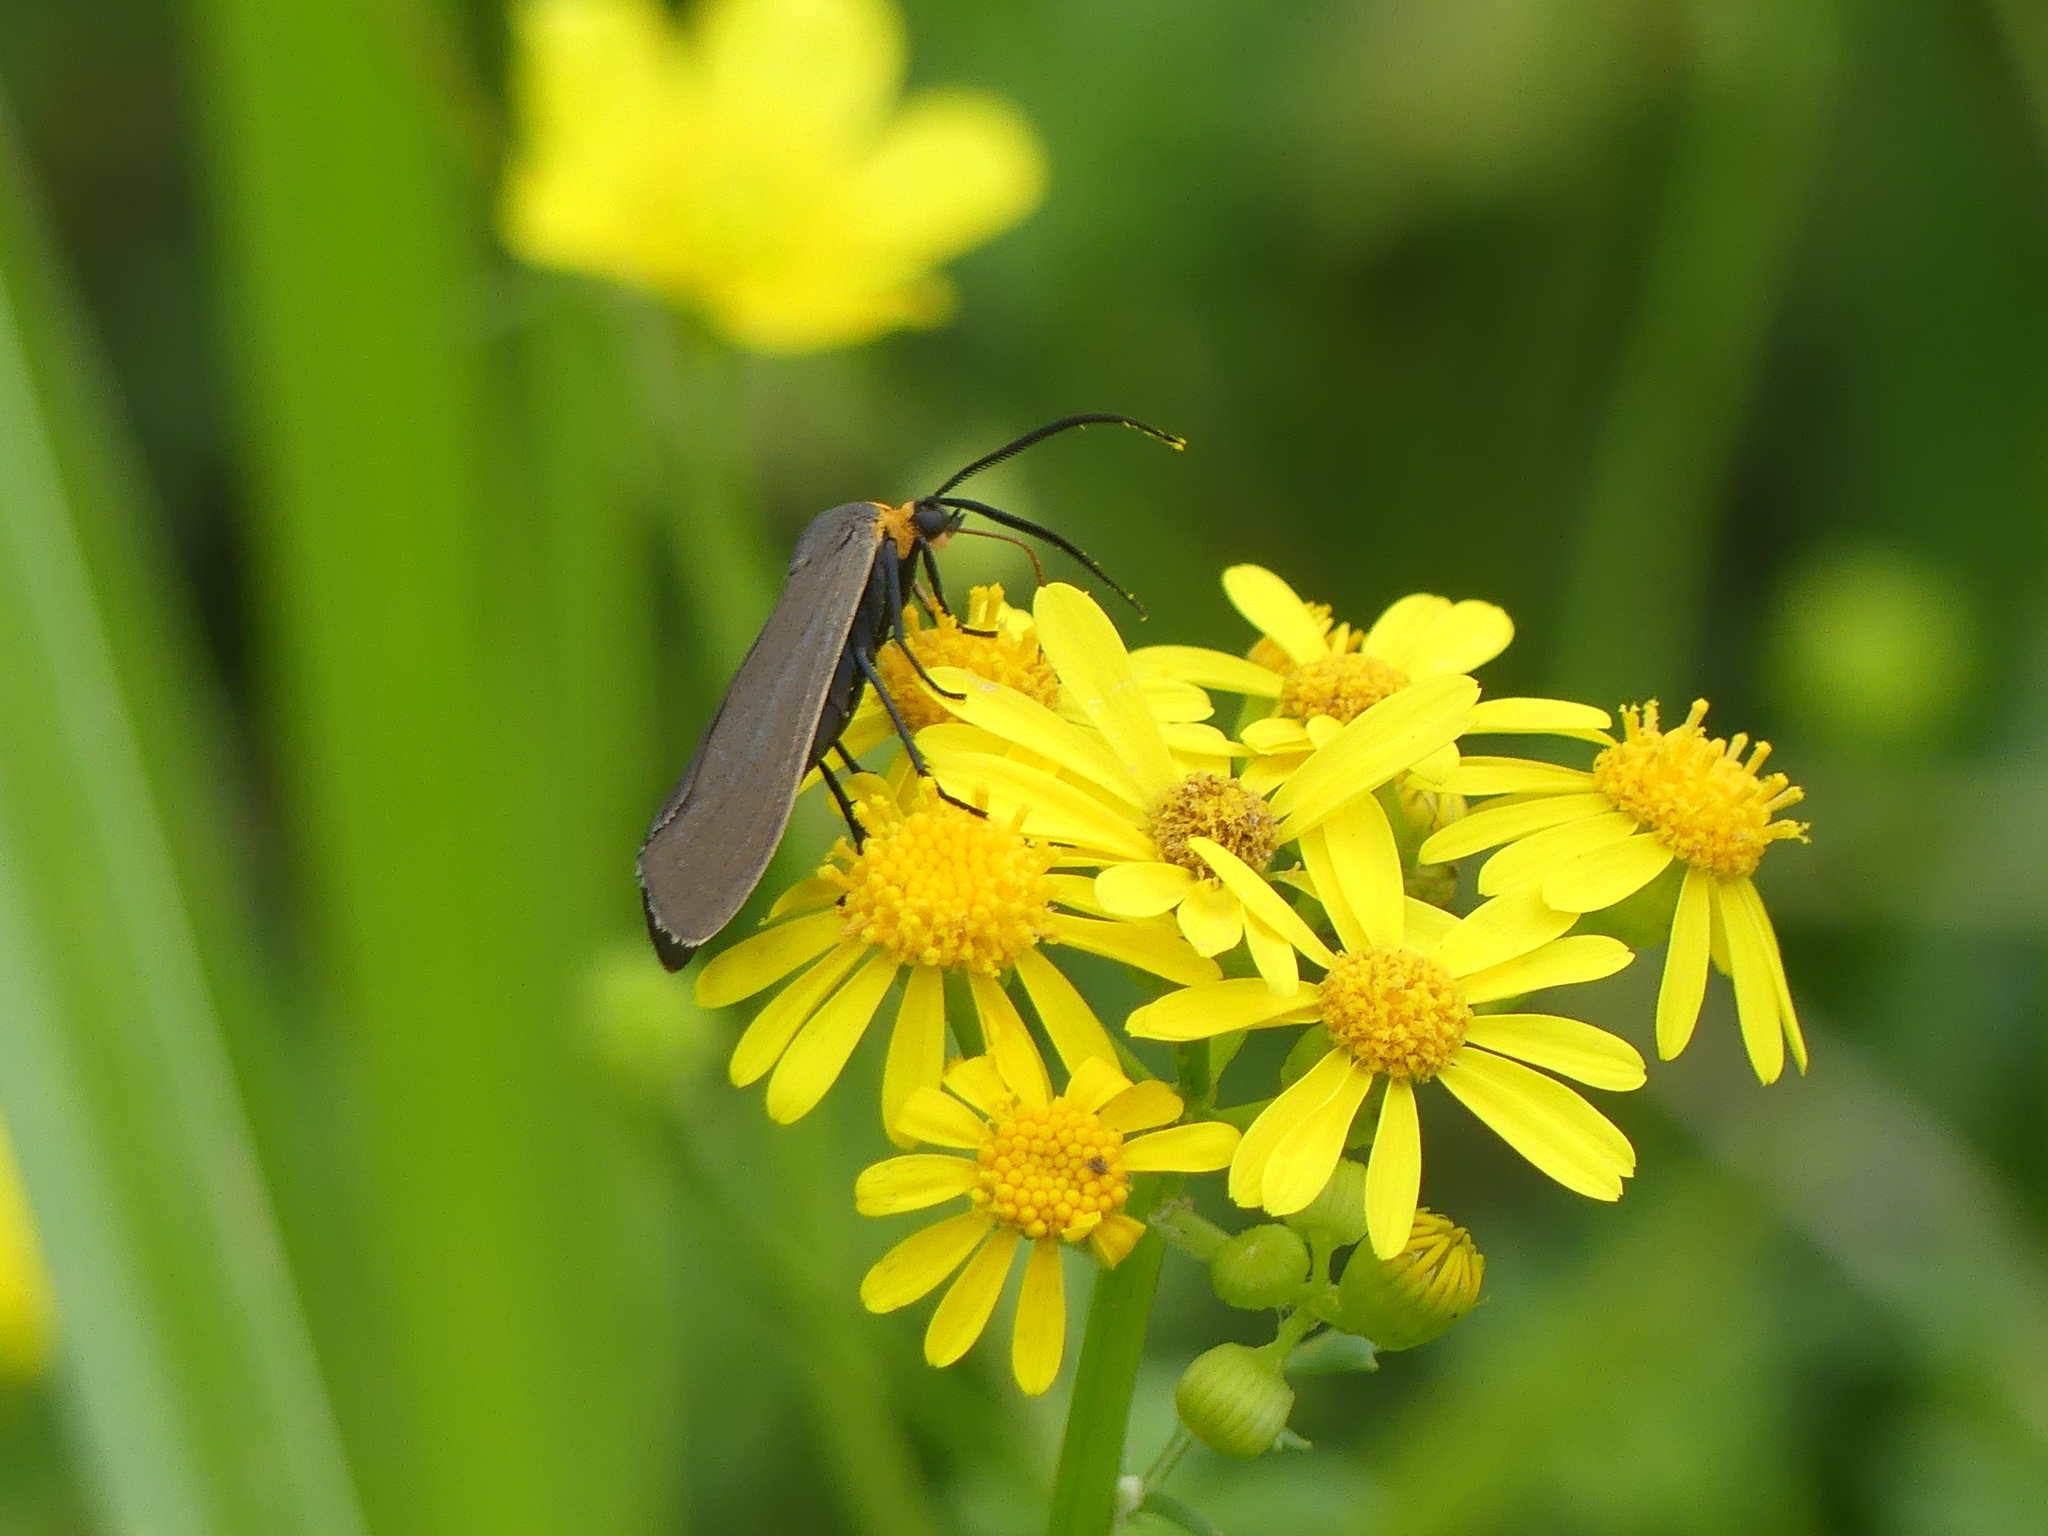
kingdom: Animalia
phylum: Arthropoda
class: Insecta
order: Lepidoptera
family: Erebidae
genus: Cisseps
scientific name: Cisseps fulvicollis
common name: Yellow-collared scape moth
